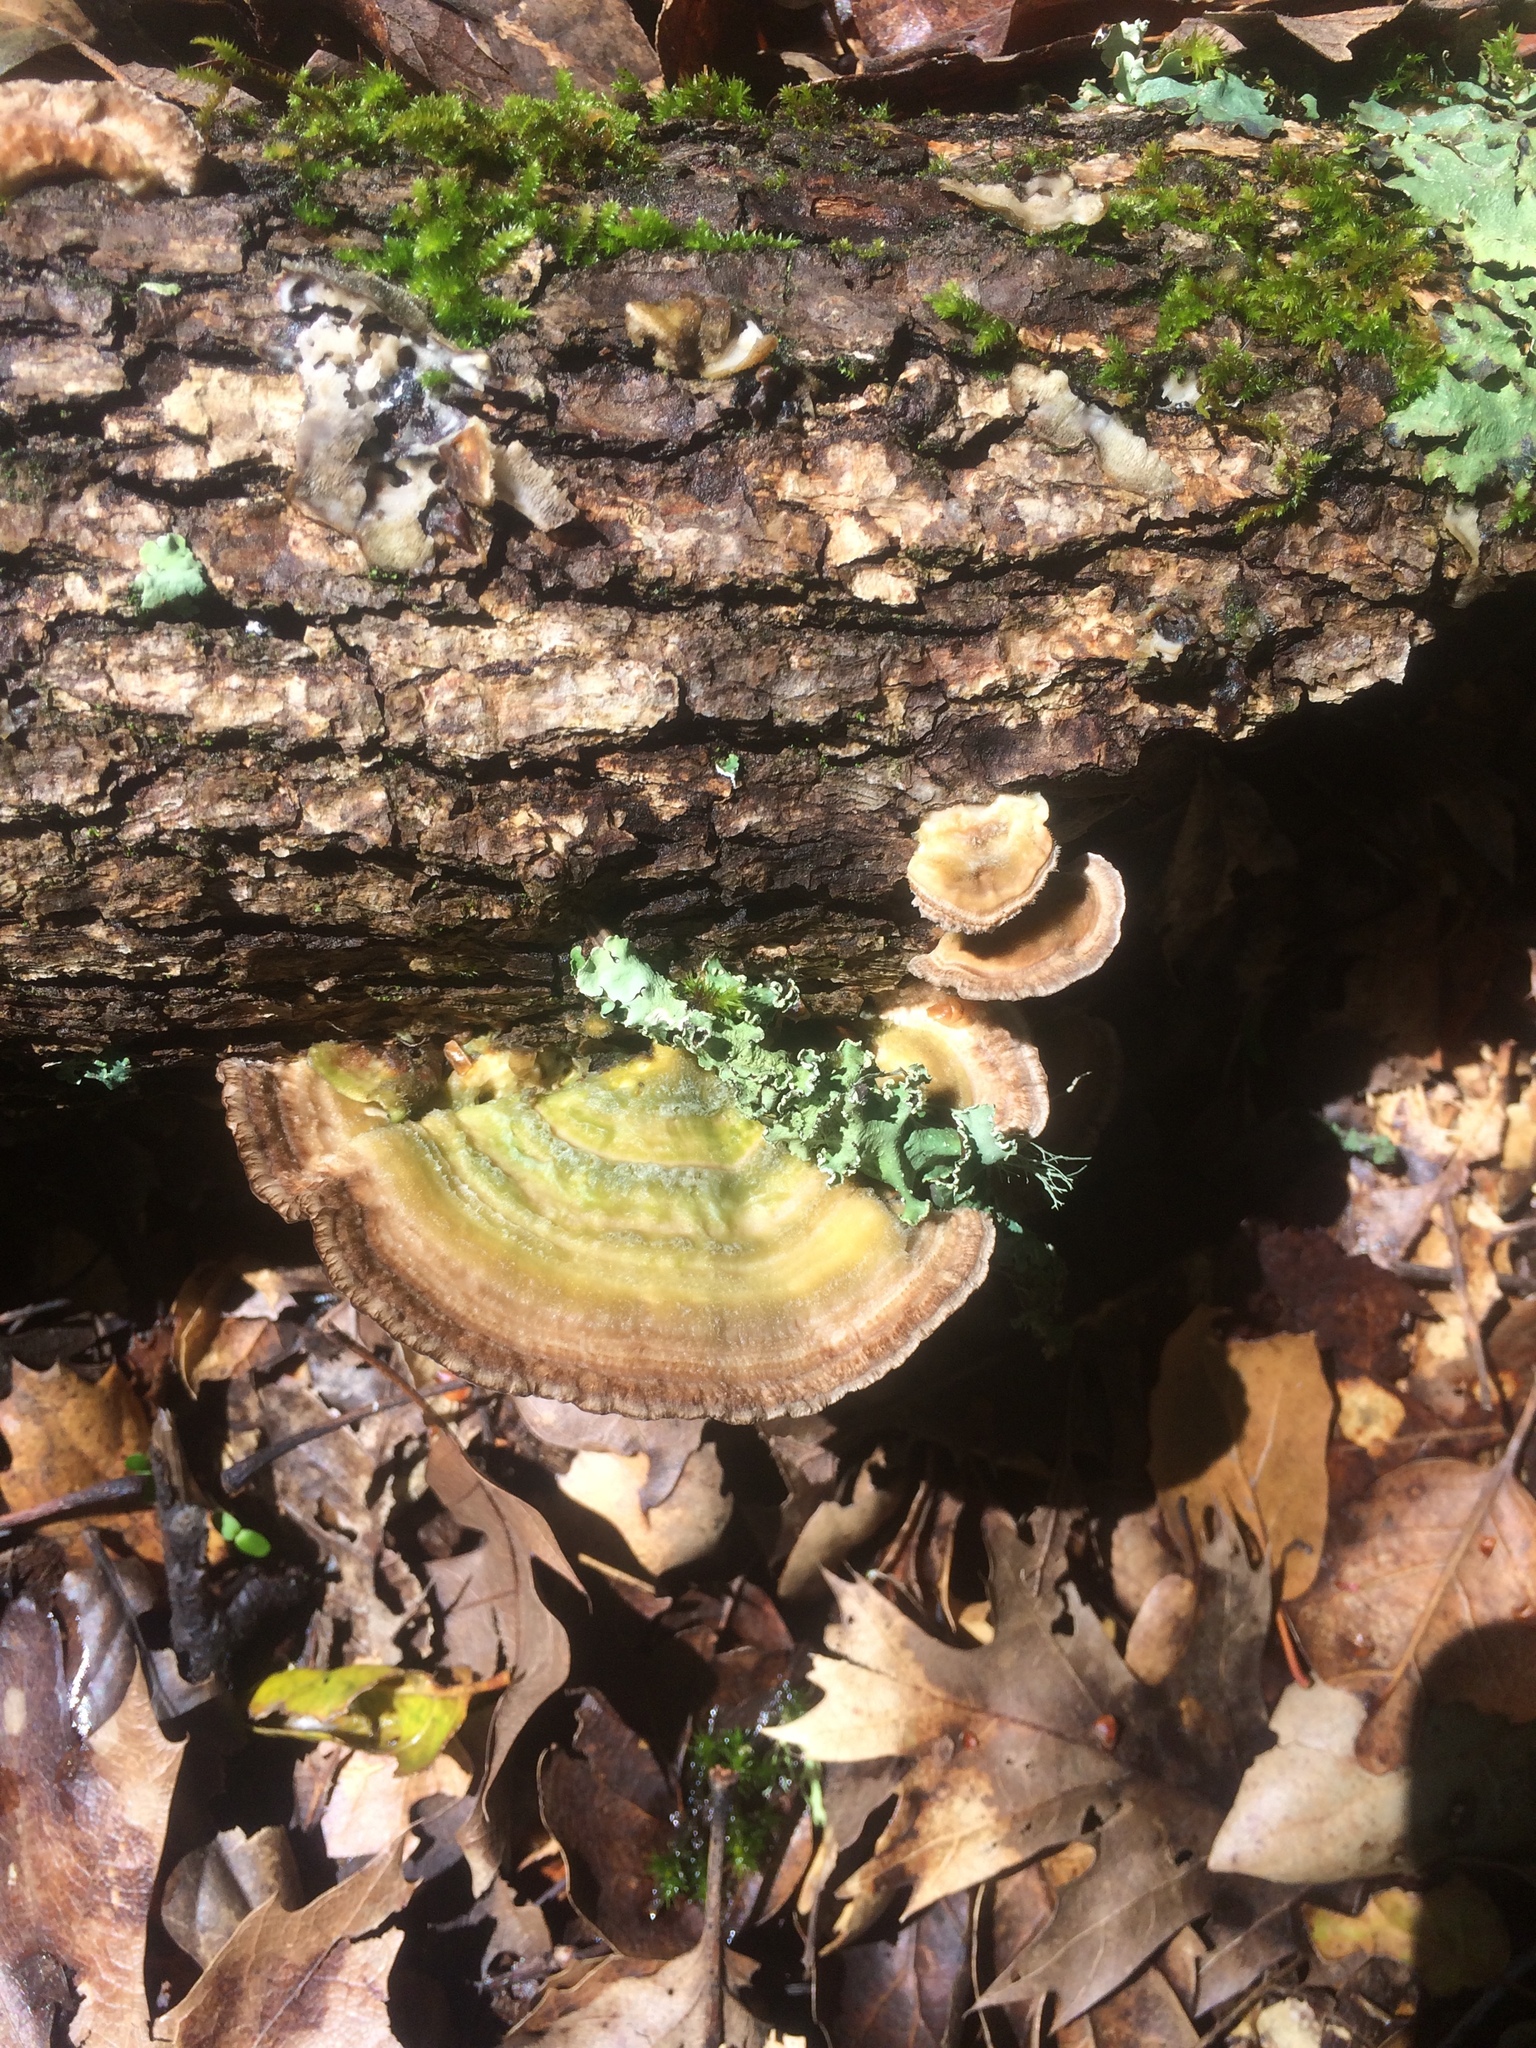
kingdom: Fungi
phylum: Basidiomycota
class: Agaricomycetes
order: Polyporales
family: Polyporaceae
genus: Lenzites
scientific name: Lenzites betulinus
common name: Birch mazegill
